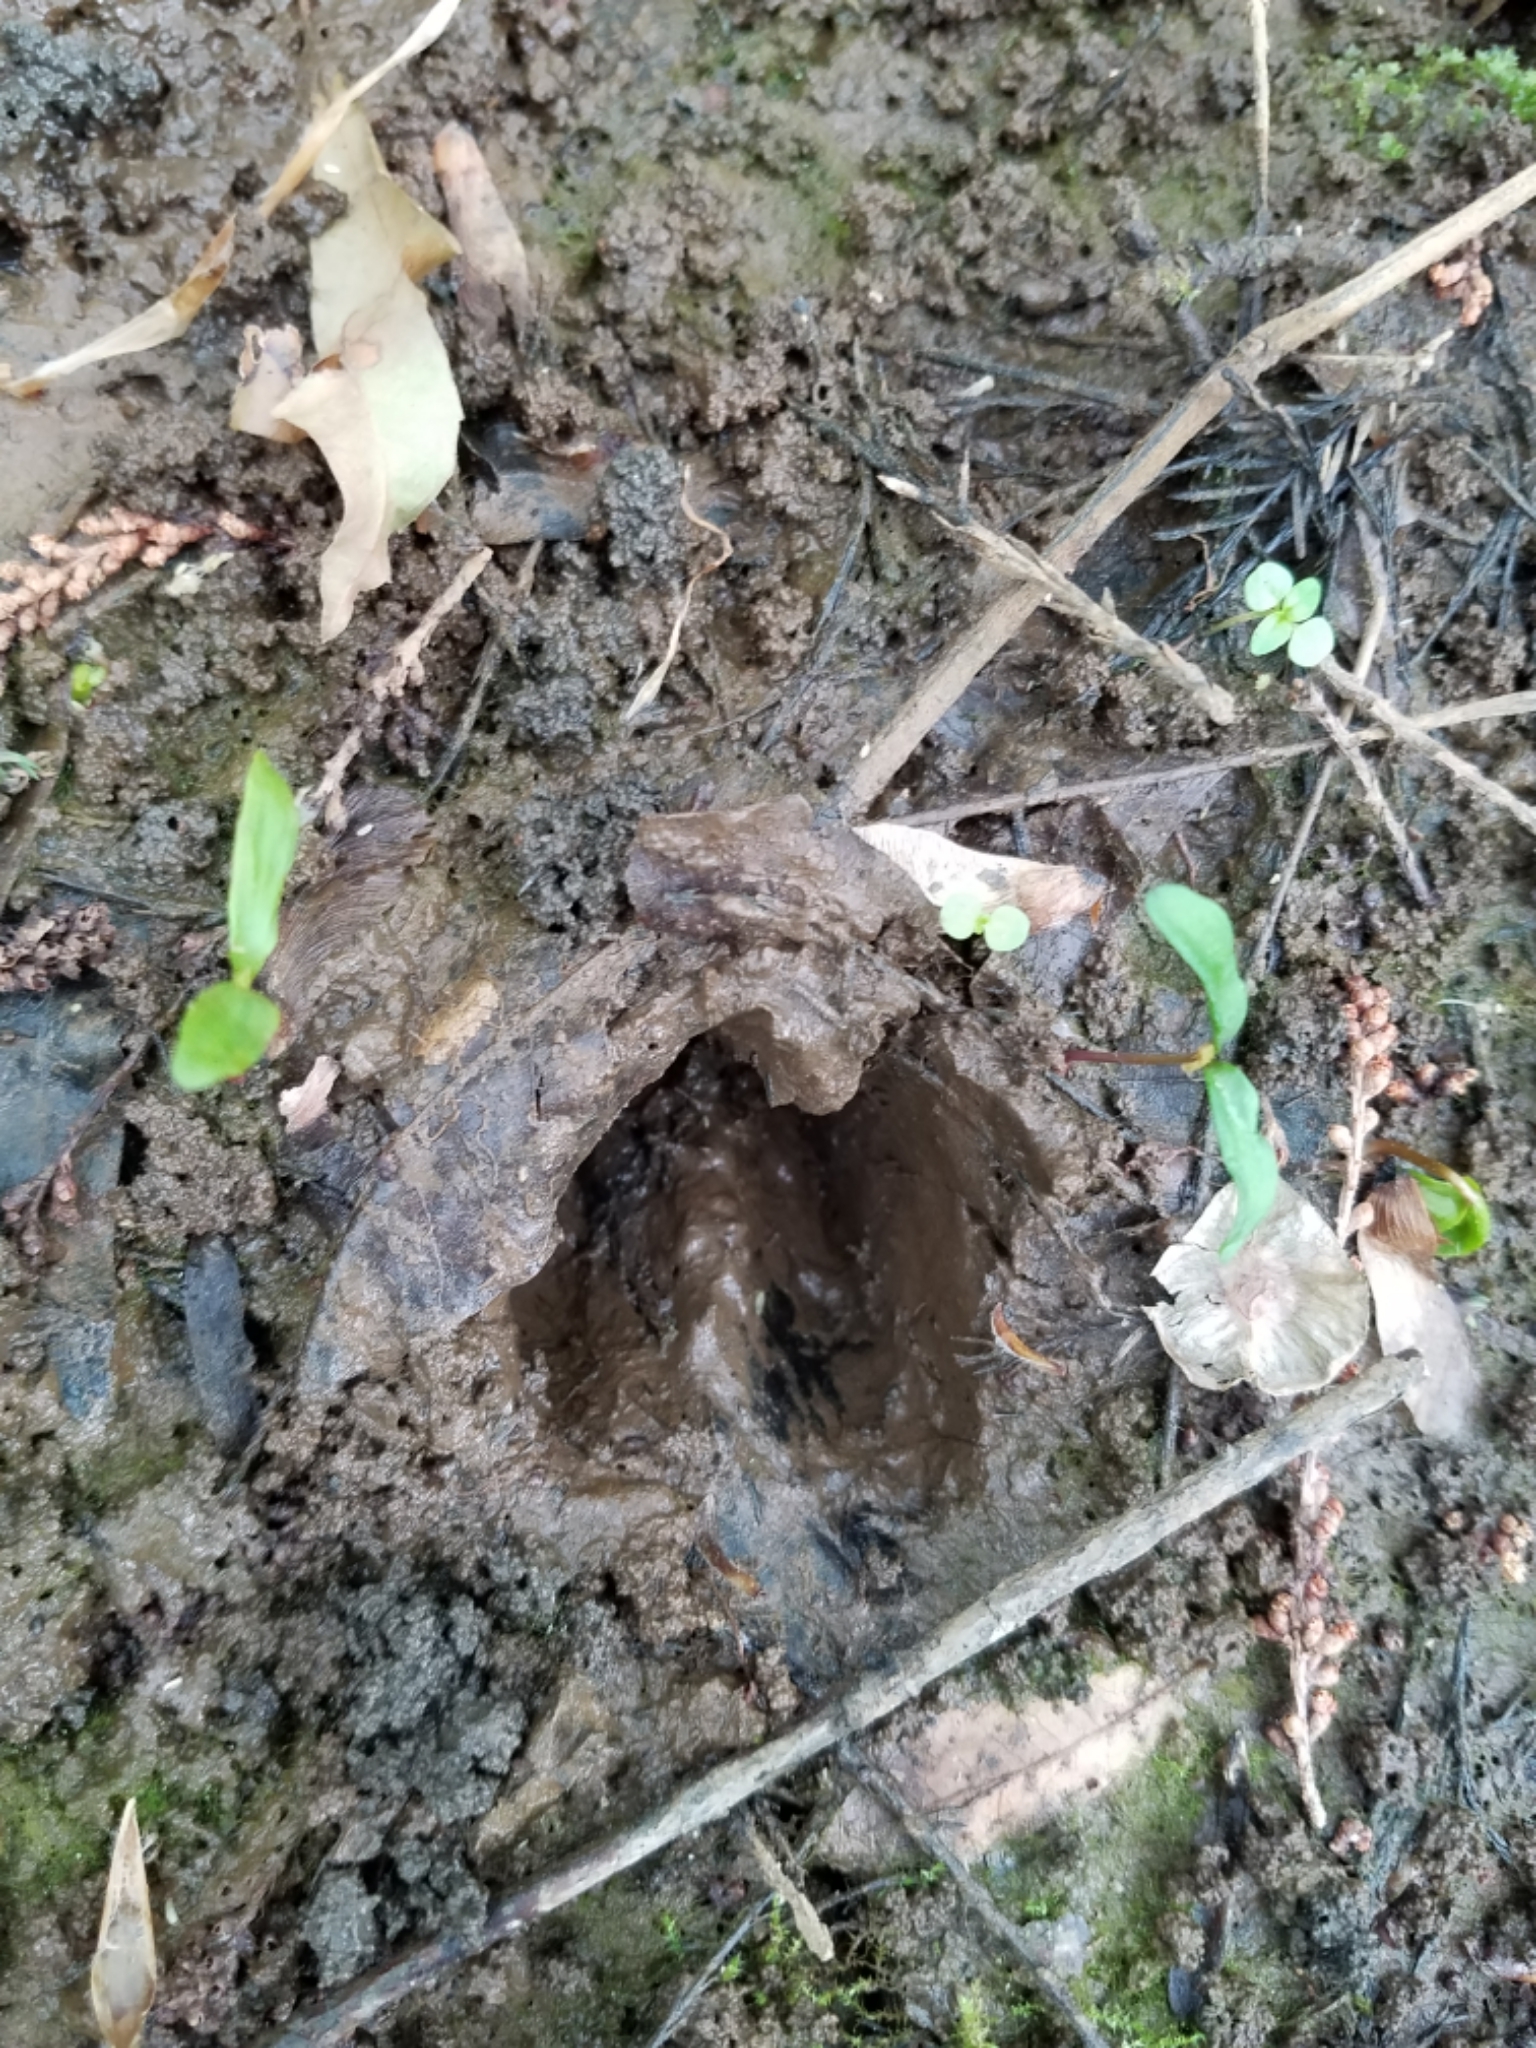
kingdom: Animalia
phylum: Chordata
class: Mammalia
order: Artiodactyla
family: Cervidae
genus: Odocoileus
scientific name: Odocoileus virginianus
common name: White-tailed deer
